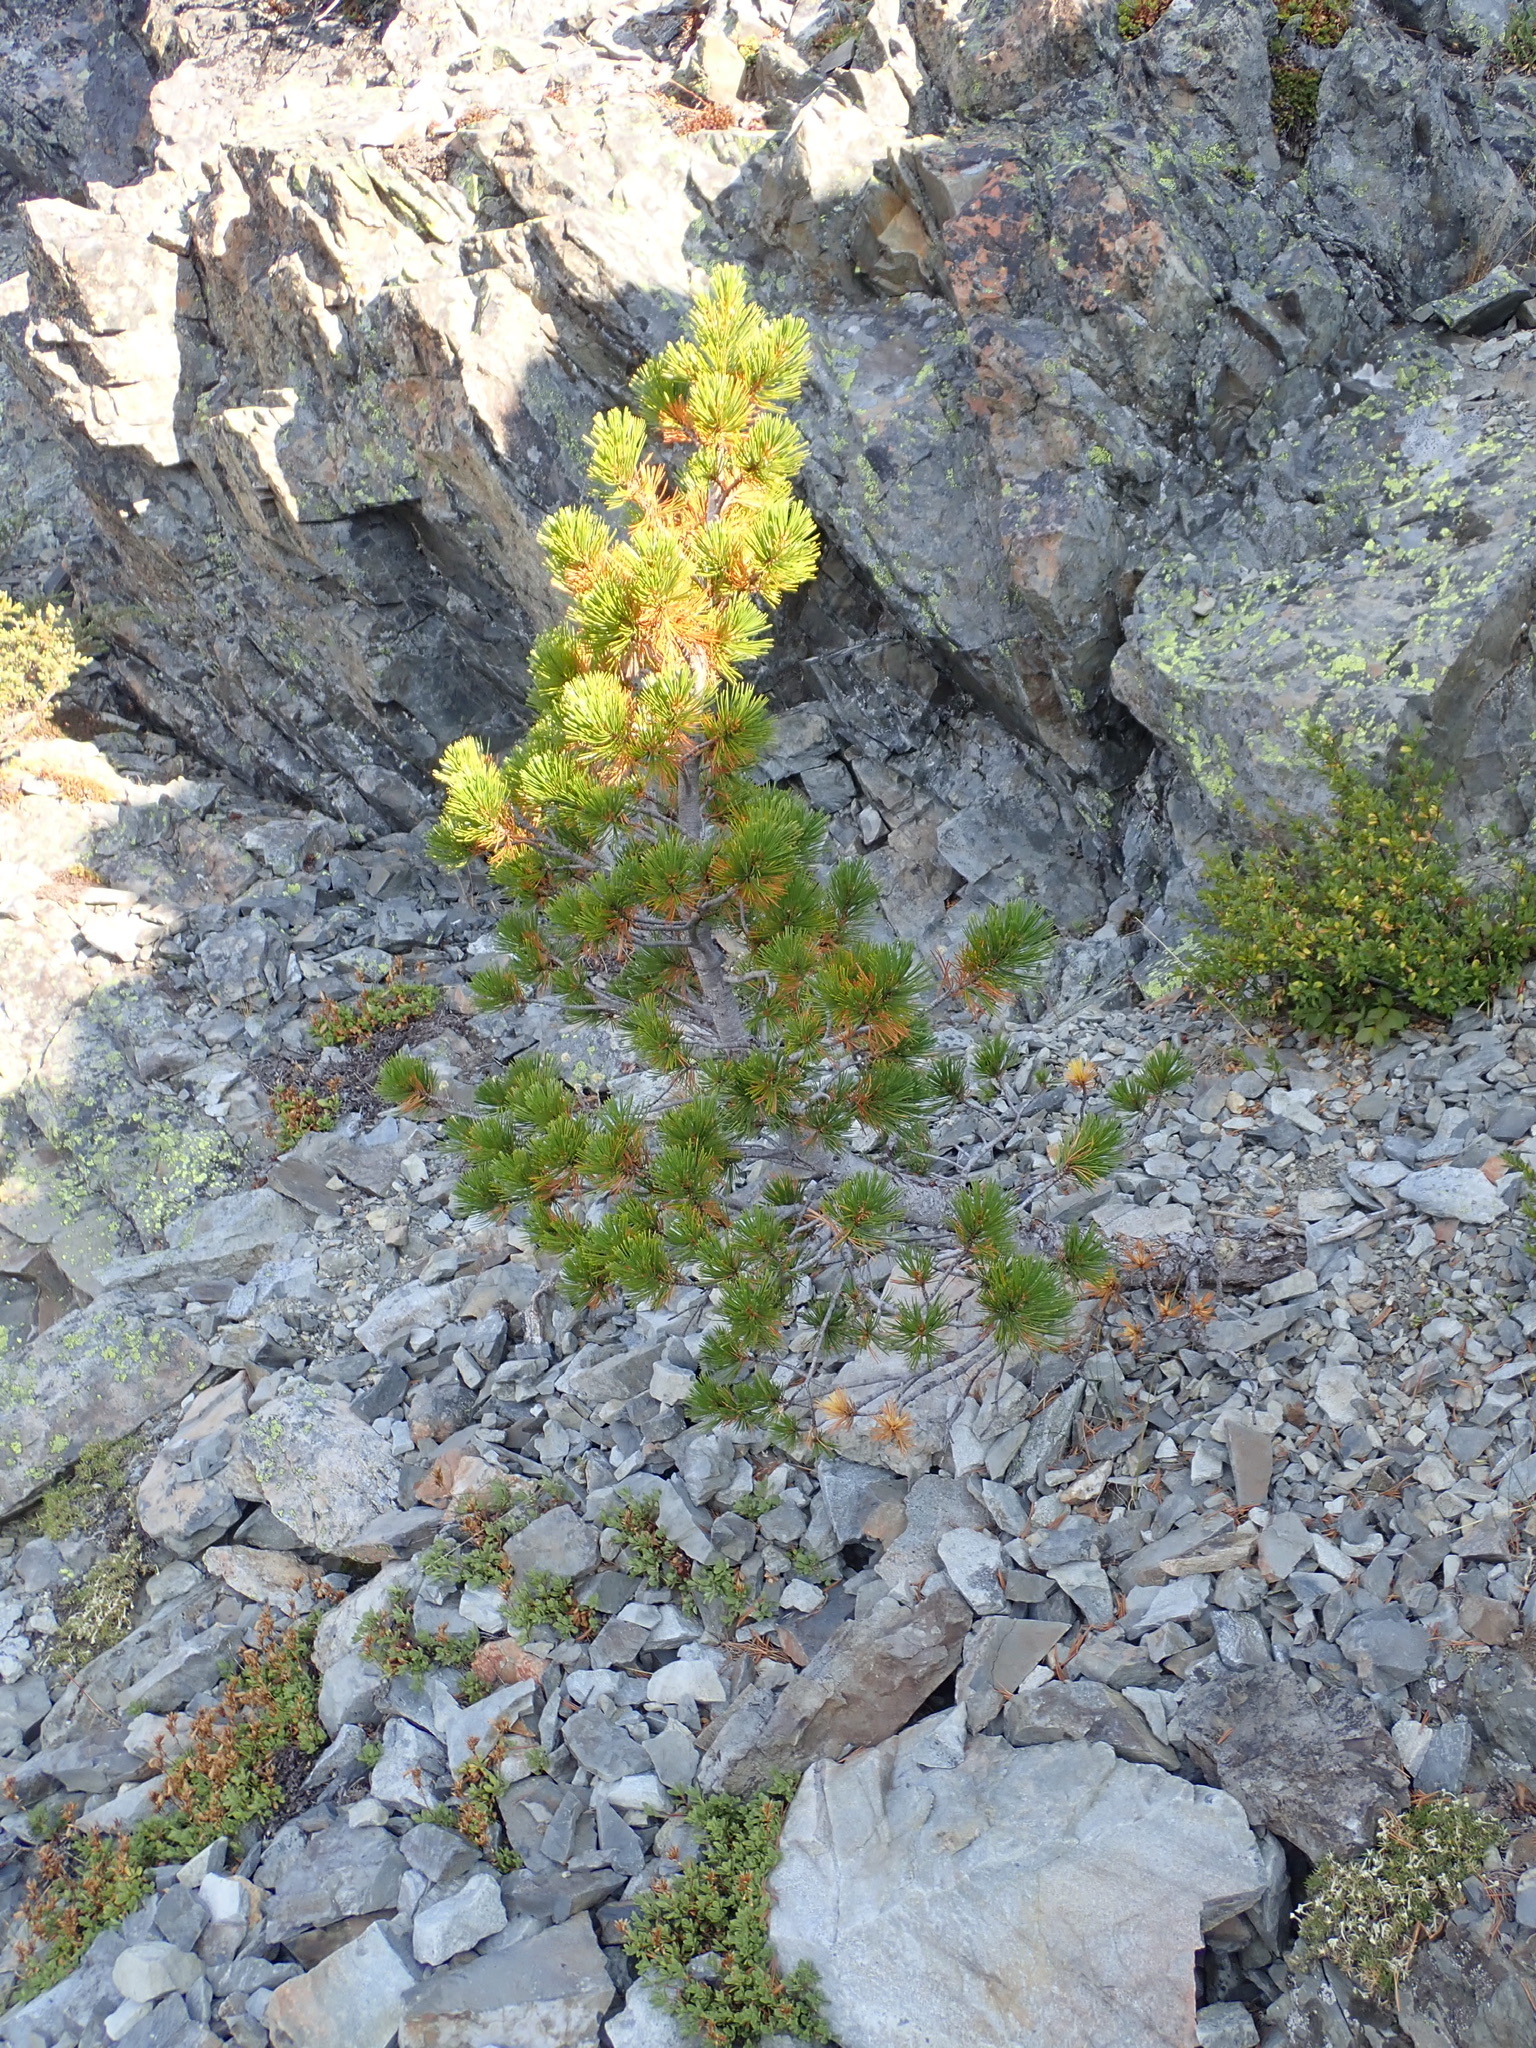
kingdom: Plantae
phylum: Tracheophyta
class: Pinopsida
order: Pinales
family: Pinaceae
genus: Pinus
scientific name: Pinus albicaulis
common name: Whitebark pine
